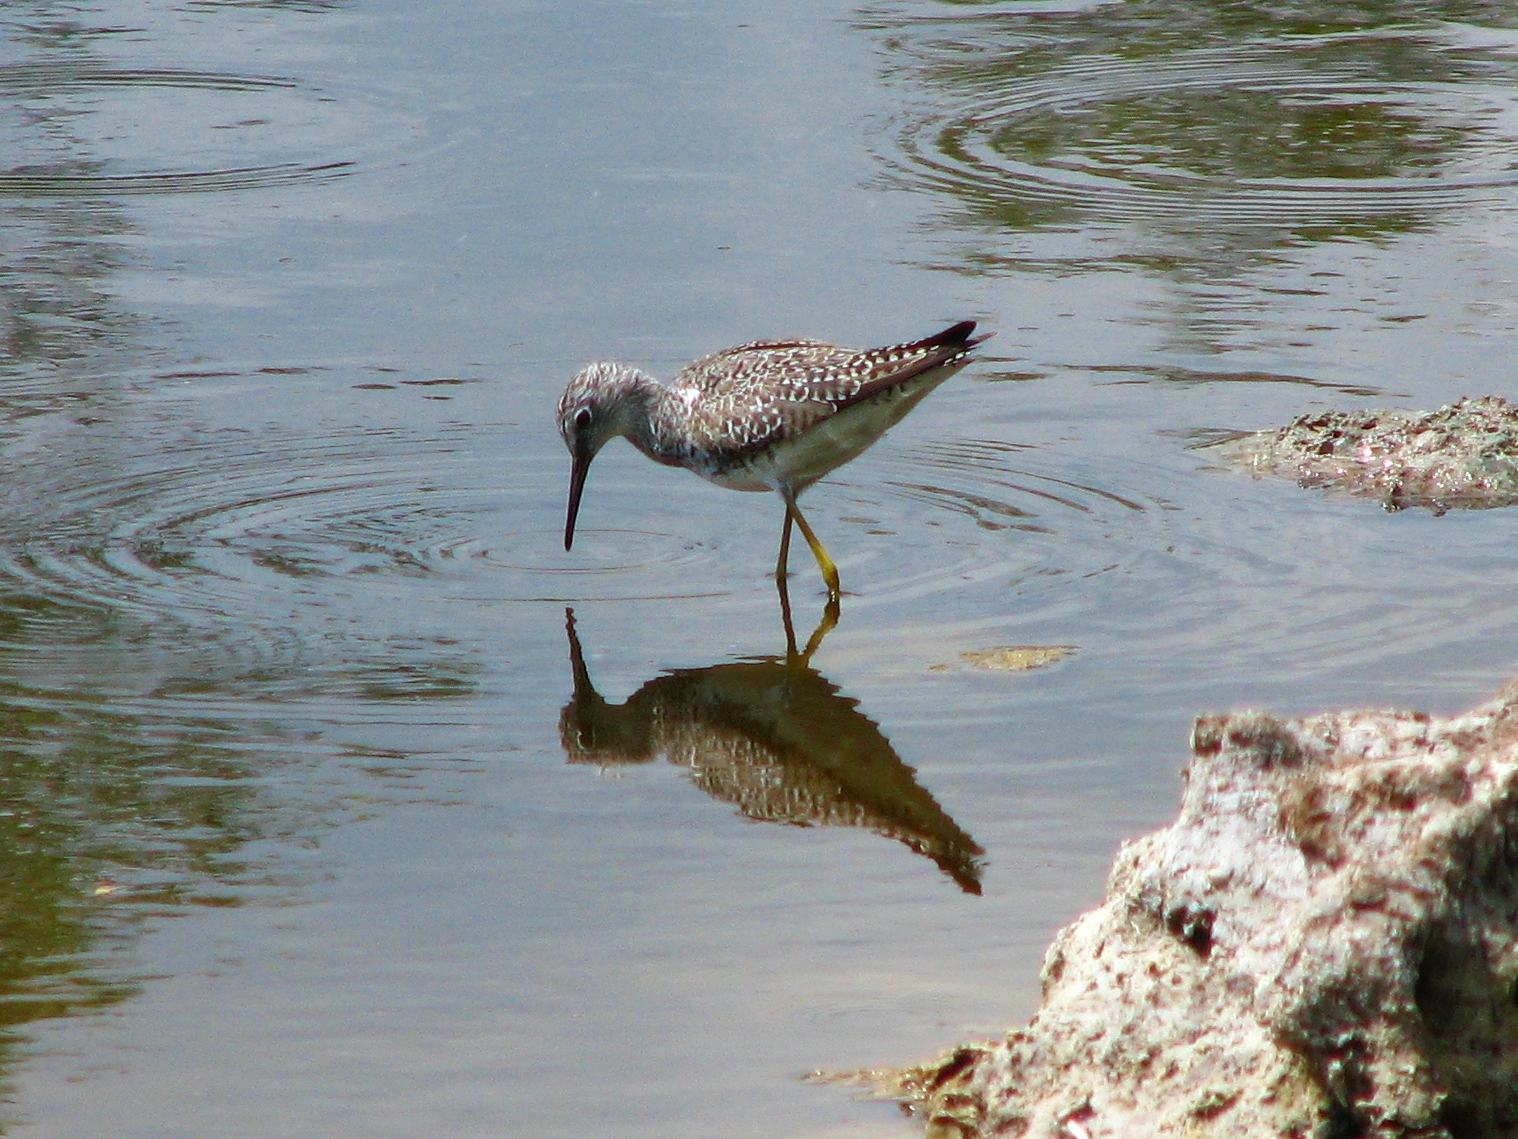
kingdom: Animalia
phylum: Chordata
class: Aves
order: Charadriiformes
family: Scolopacidae
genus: Tringa
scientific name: Tringa flavipes
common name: Lesser yellowlegs
